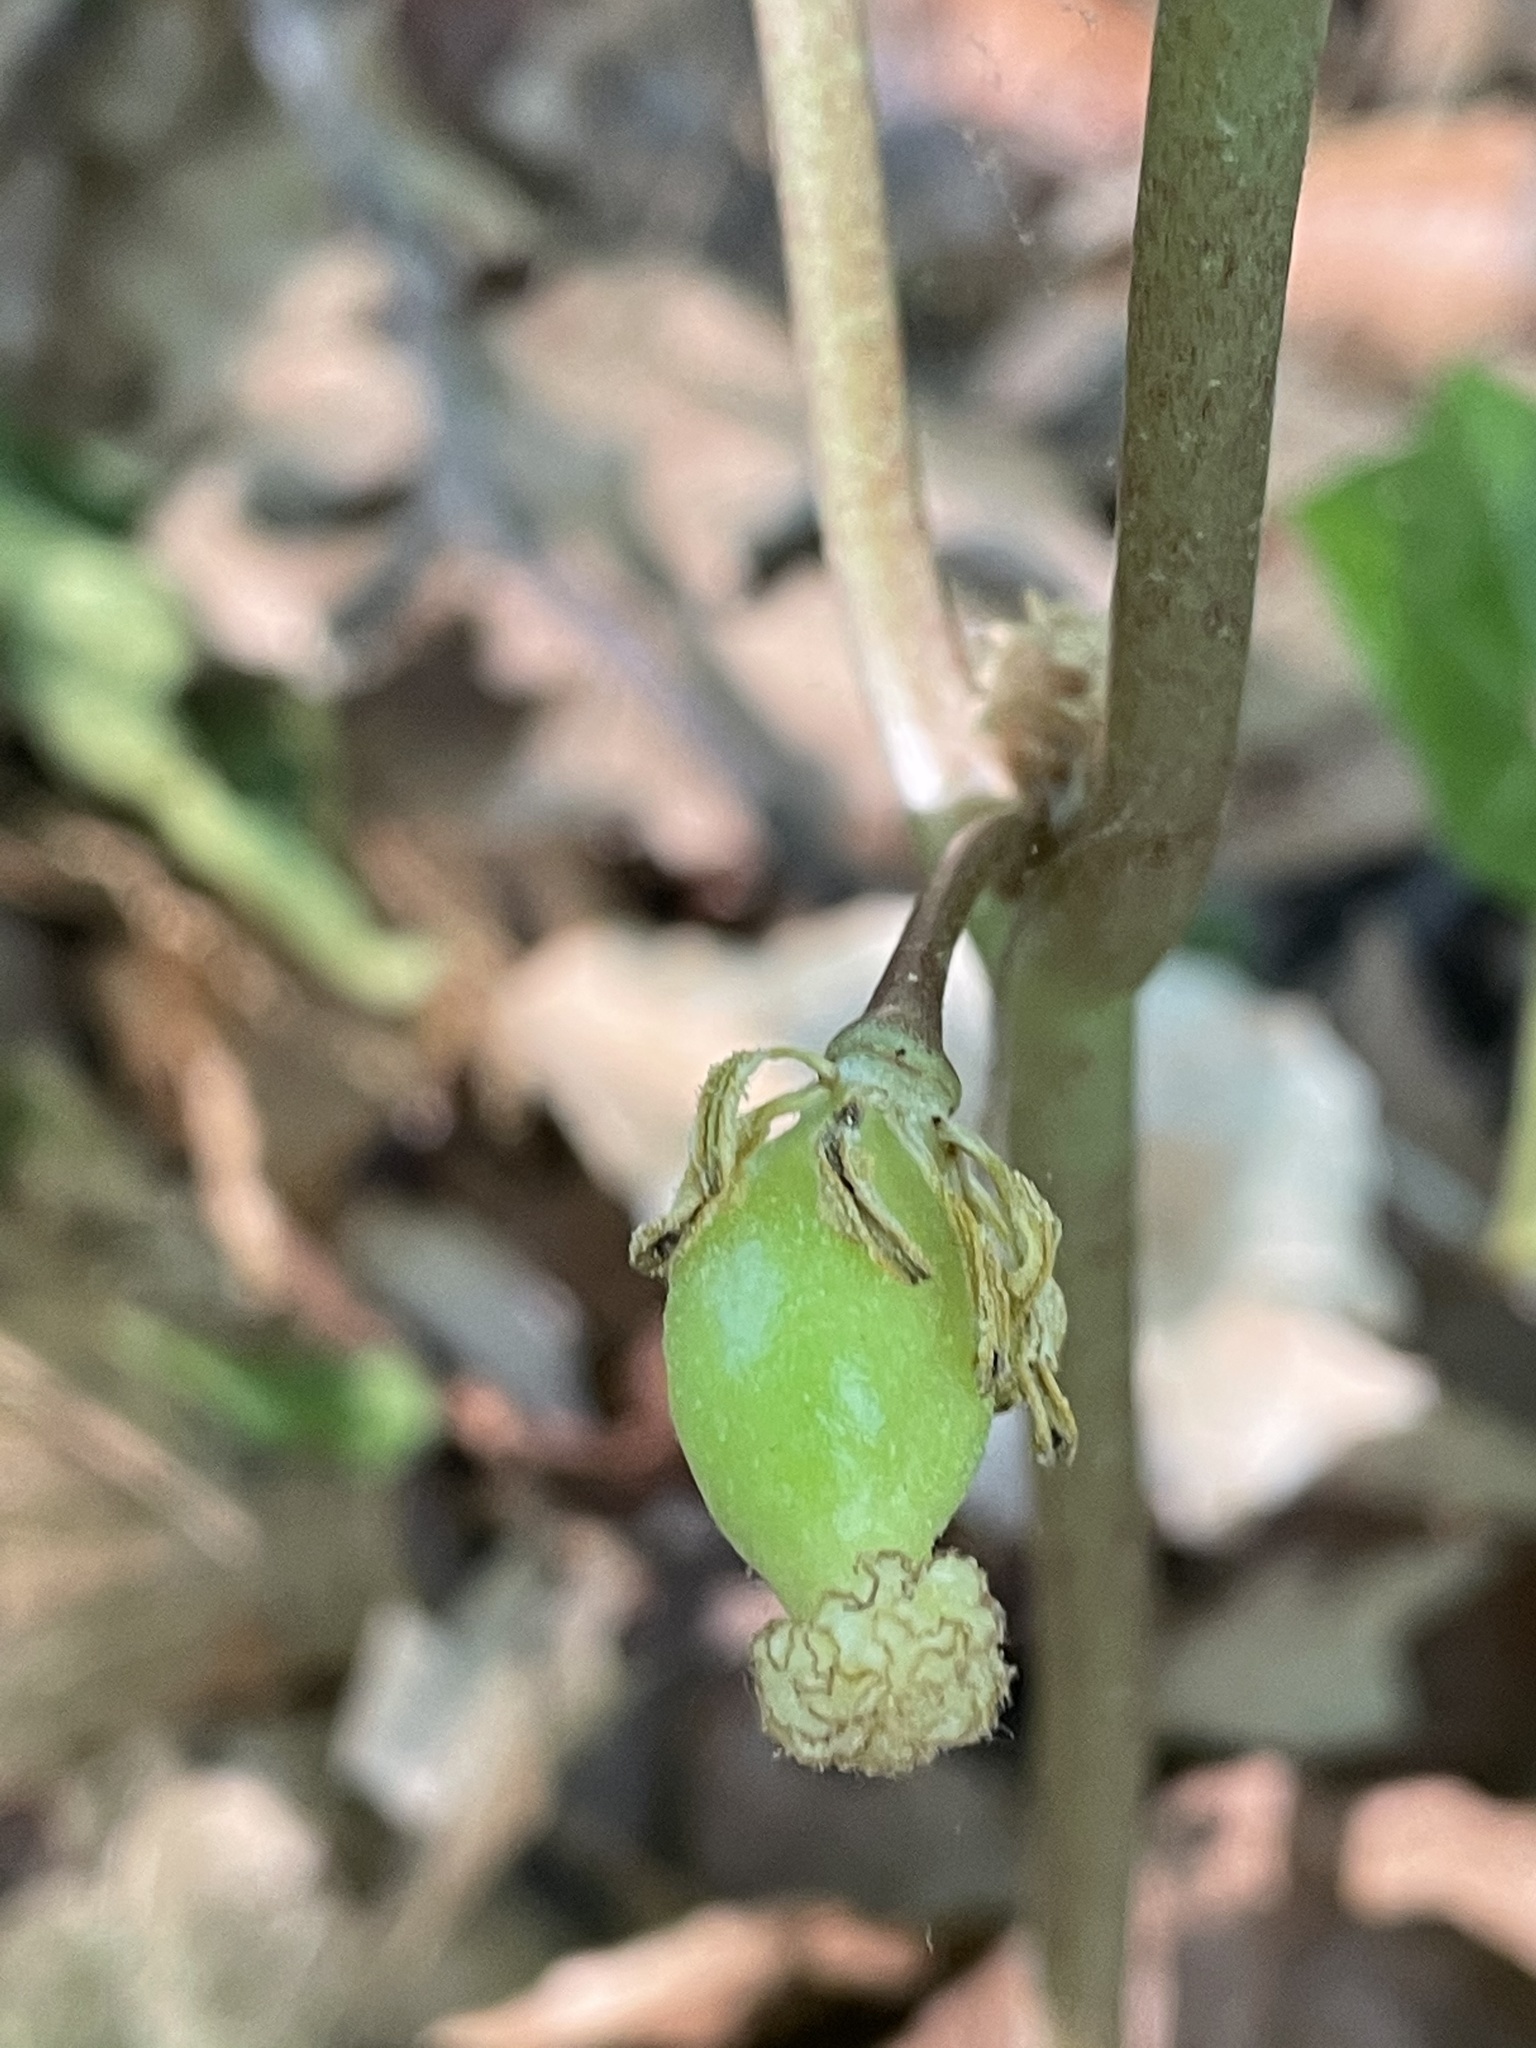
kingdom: Plantae
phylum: Tracheophyta
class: Magnoliopsida
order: Ranunculales
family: Berberidaceae
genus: Podophyllum
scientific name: Podophyllum peltatum
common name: Wild mandrake
